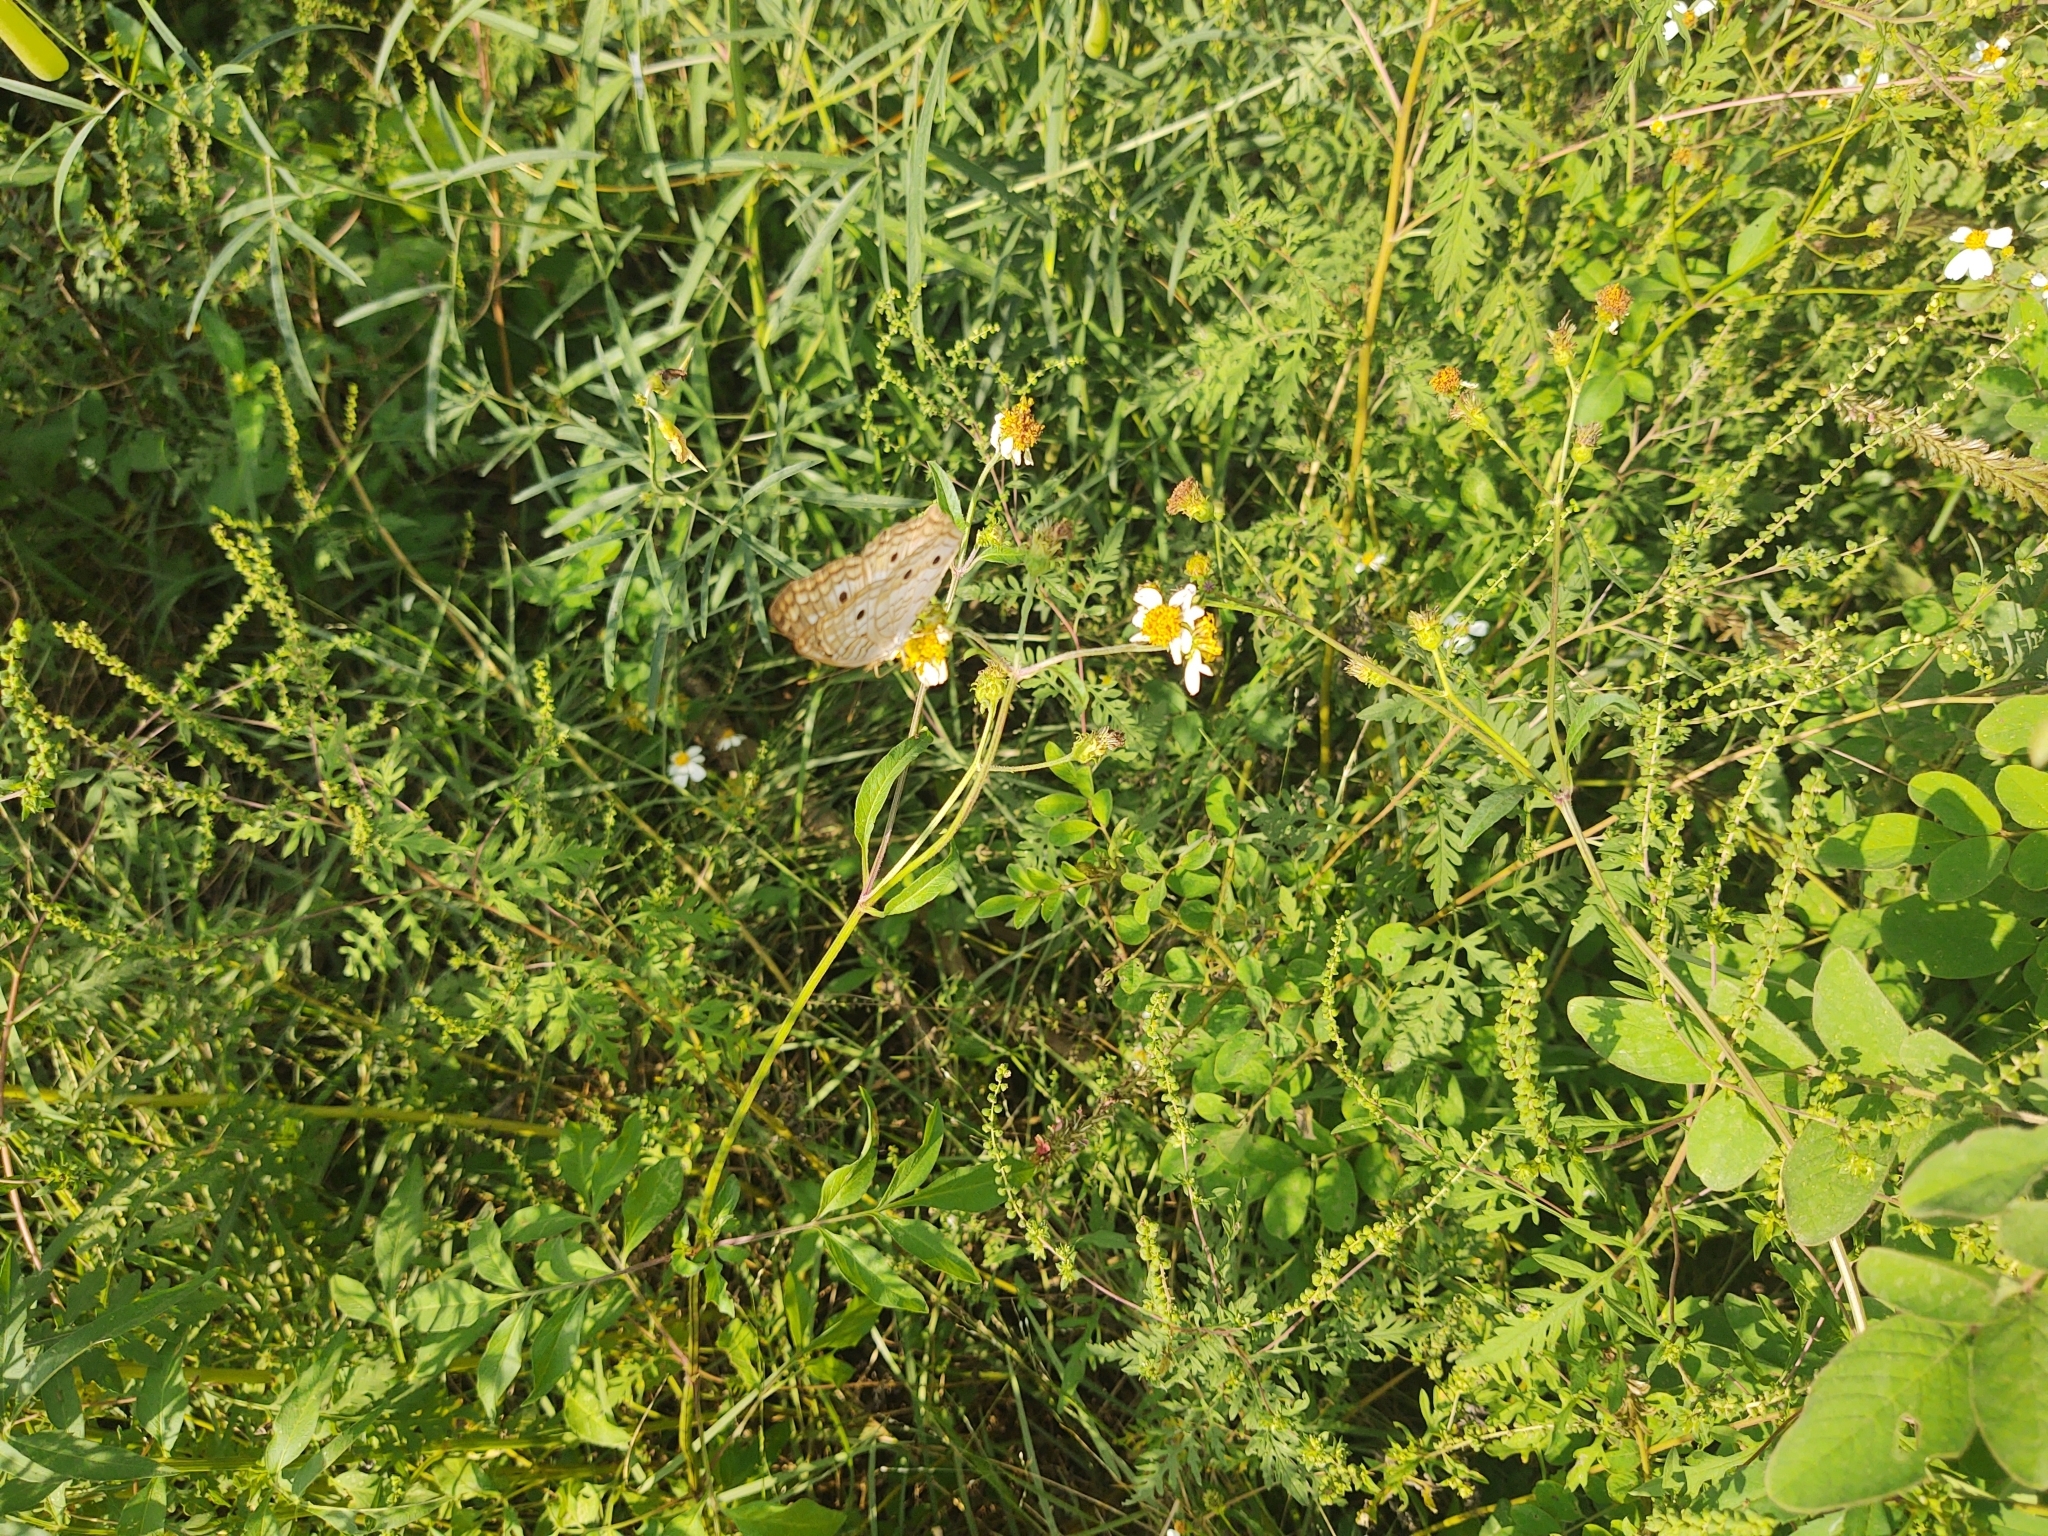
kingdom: Animalia
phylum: Arthropoda
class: Insecta
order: Lepidoptera
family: Nymphalidae
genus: Anartia
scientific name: Anartia jatrophae
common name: White peacock
